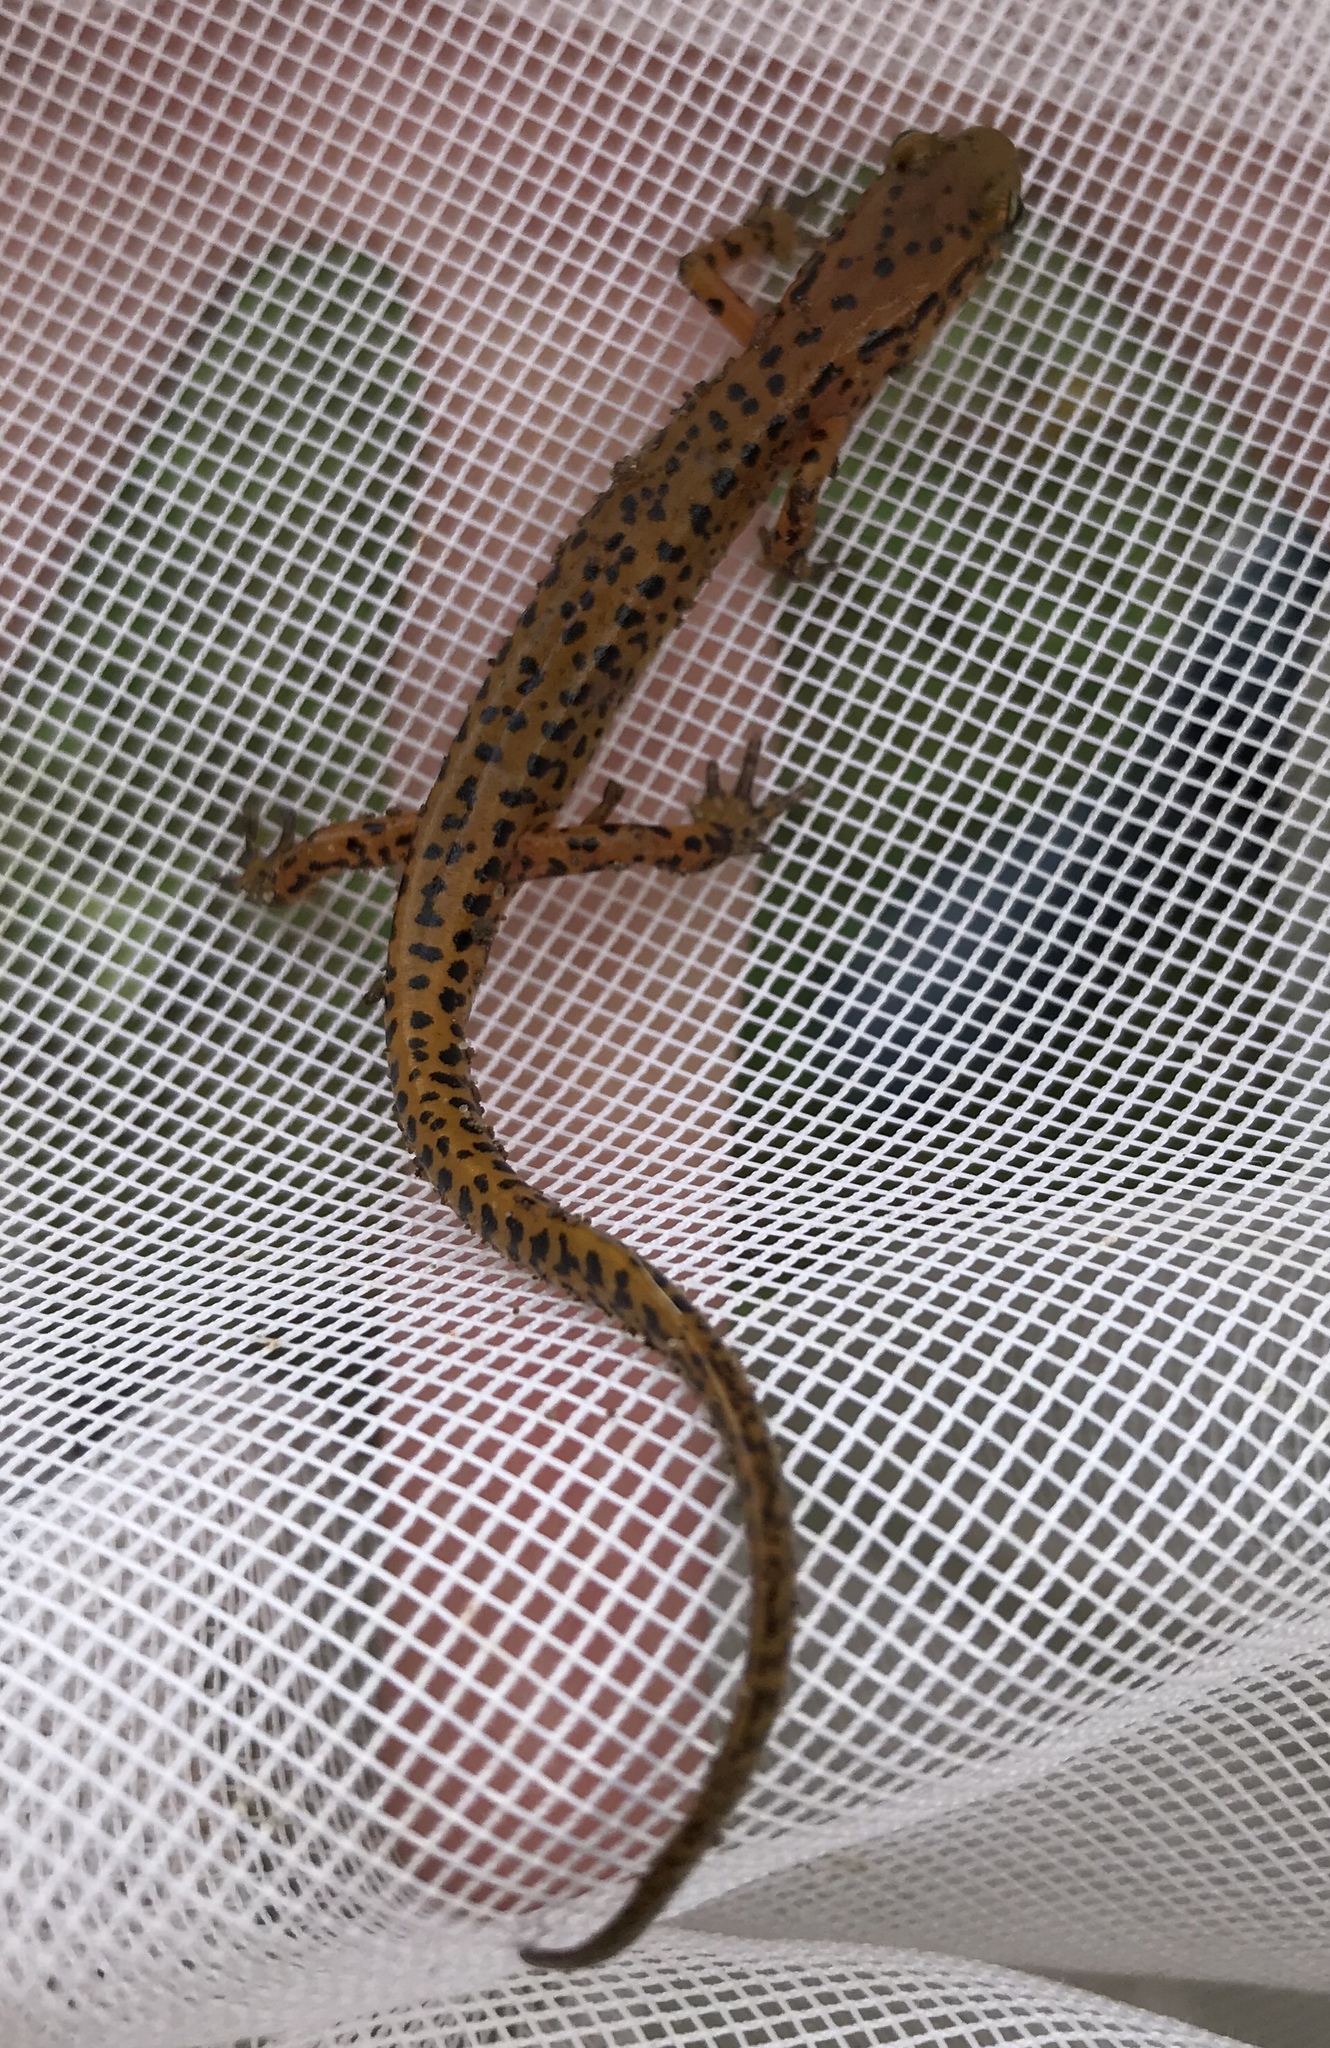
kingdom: Animalia
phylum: Chordata
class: Amphibia
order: Caudata
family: Plethodontidae
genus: Eurycea
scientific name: Eurycea longicauda
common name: Long-tailed salamander
